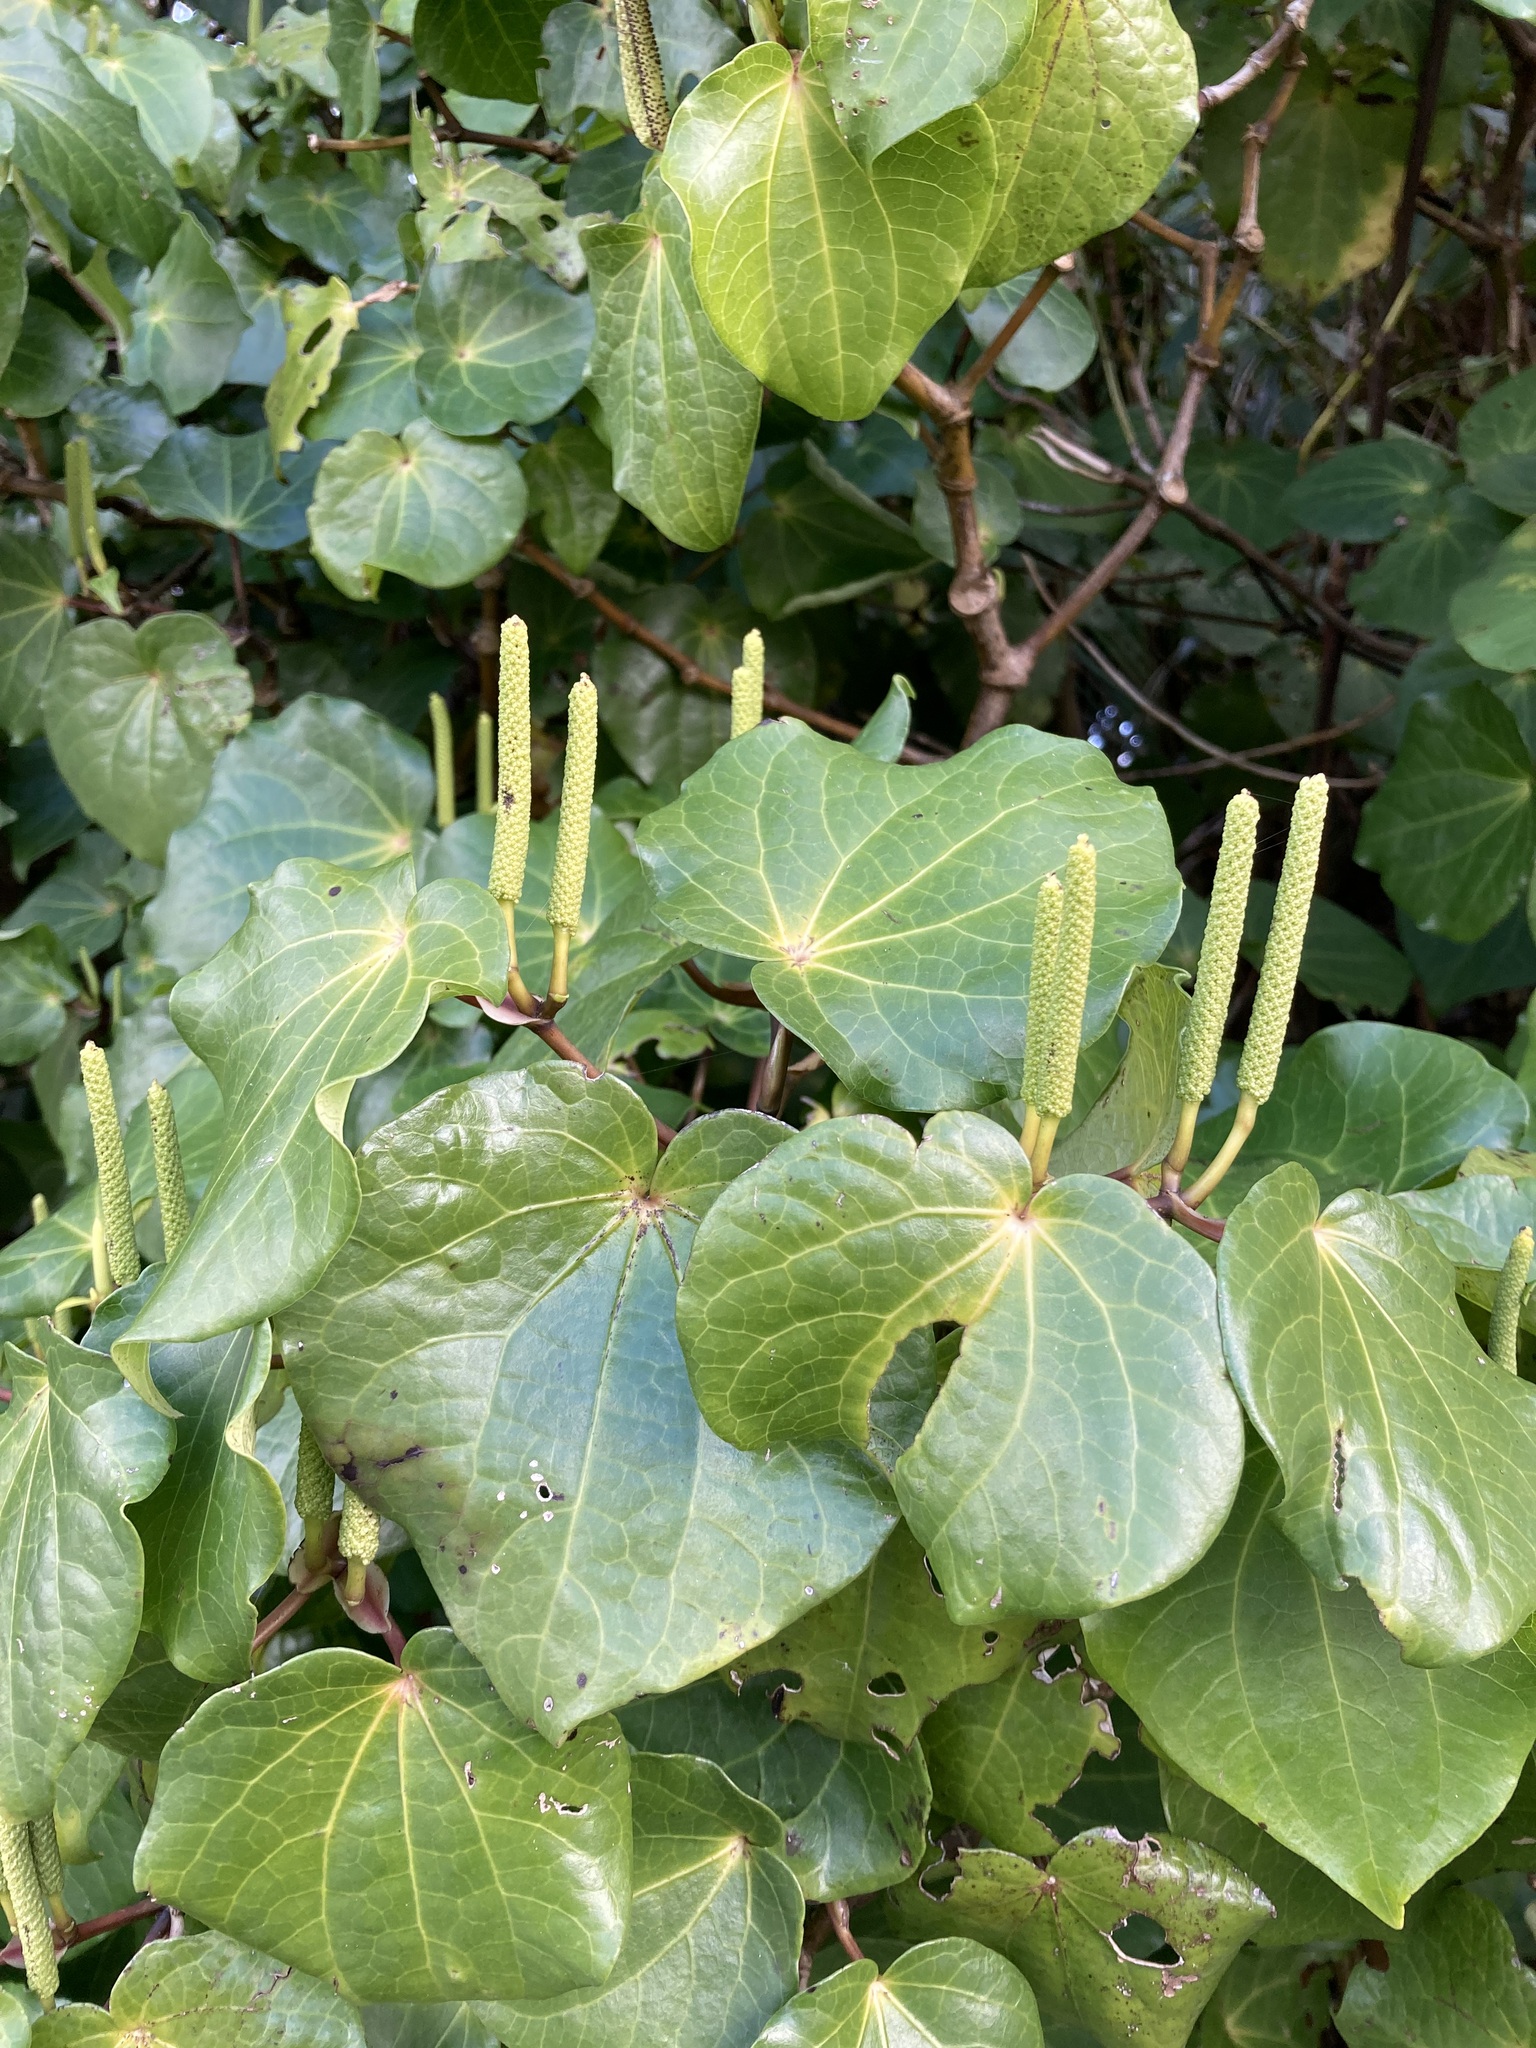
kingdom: Plantae
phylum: Tracheophyta
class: Magnoliopsida
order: Piperales
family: Piperaceae
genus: Macropiper
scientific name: Macropiper excelsum
